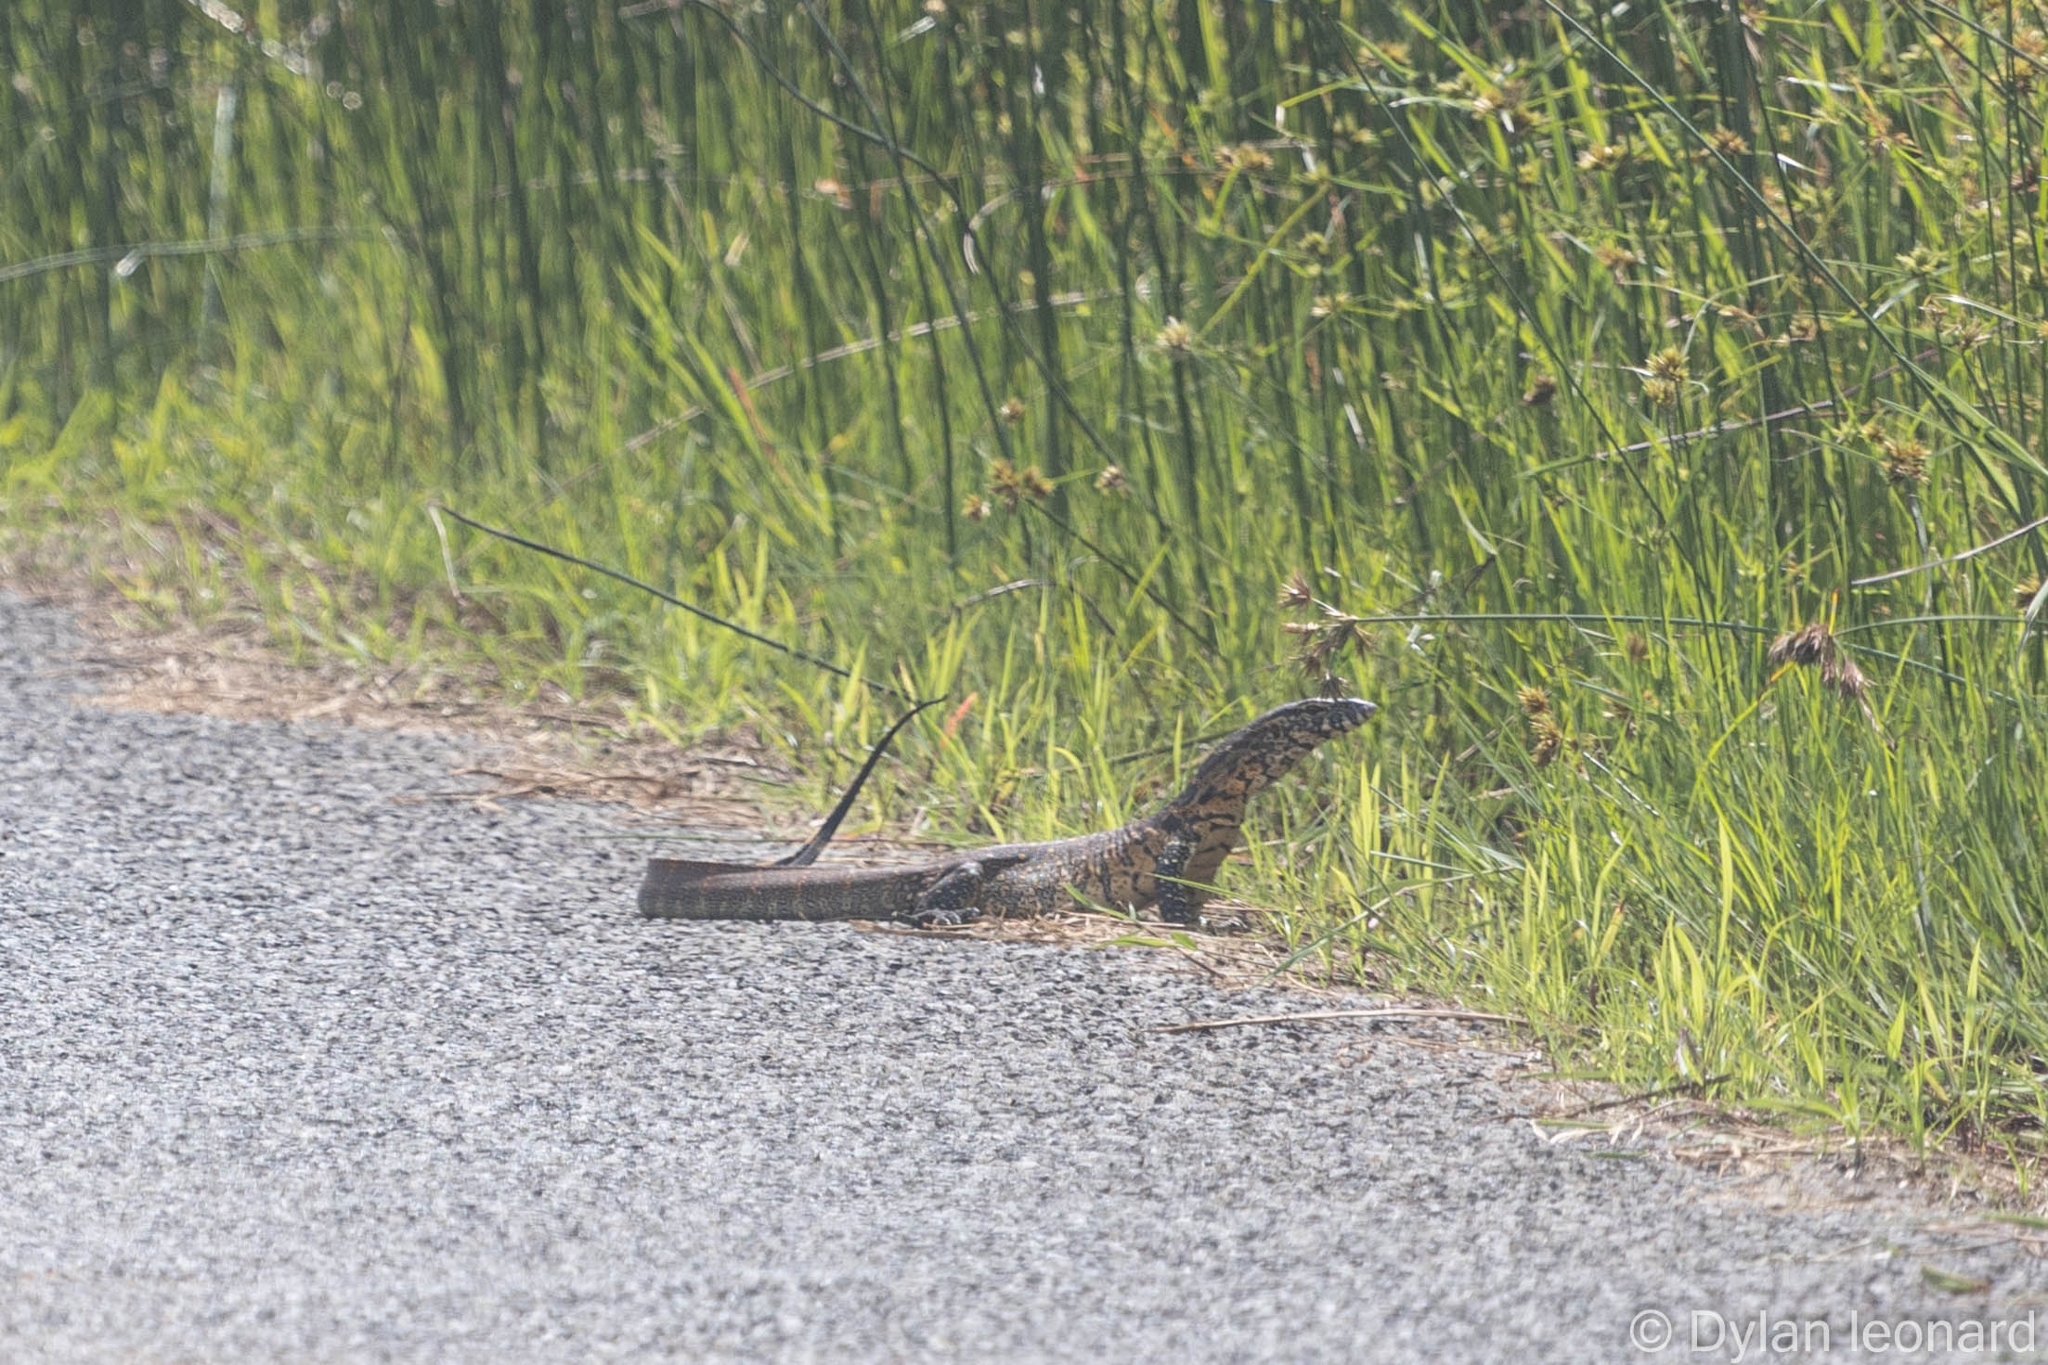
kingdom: Animalia
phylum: Chordata
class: Squamata
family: Varanidae
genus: Varanus
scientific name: Varanus niloticus
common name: Nile monitor
